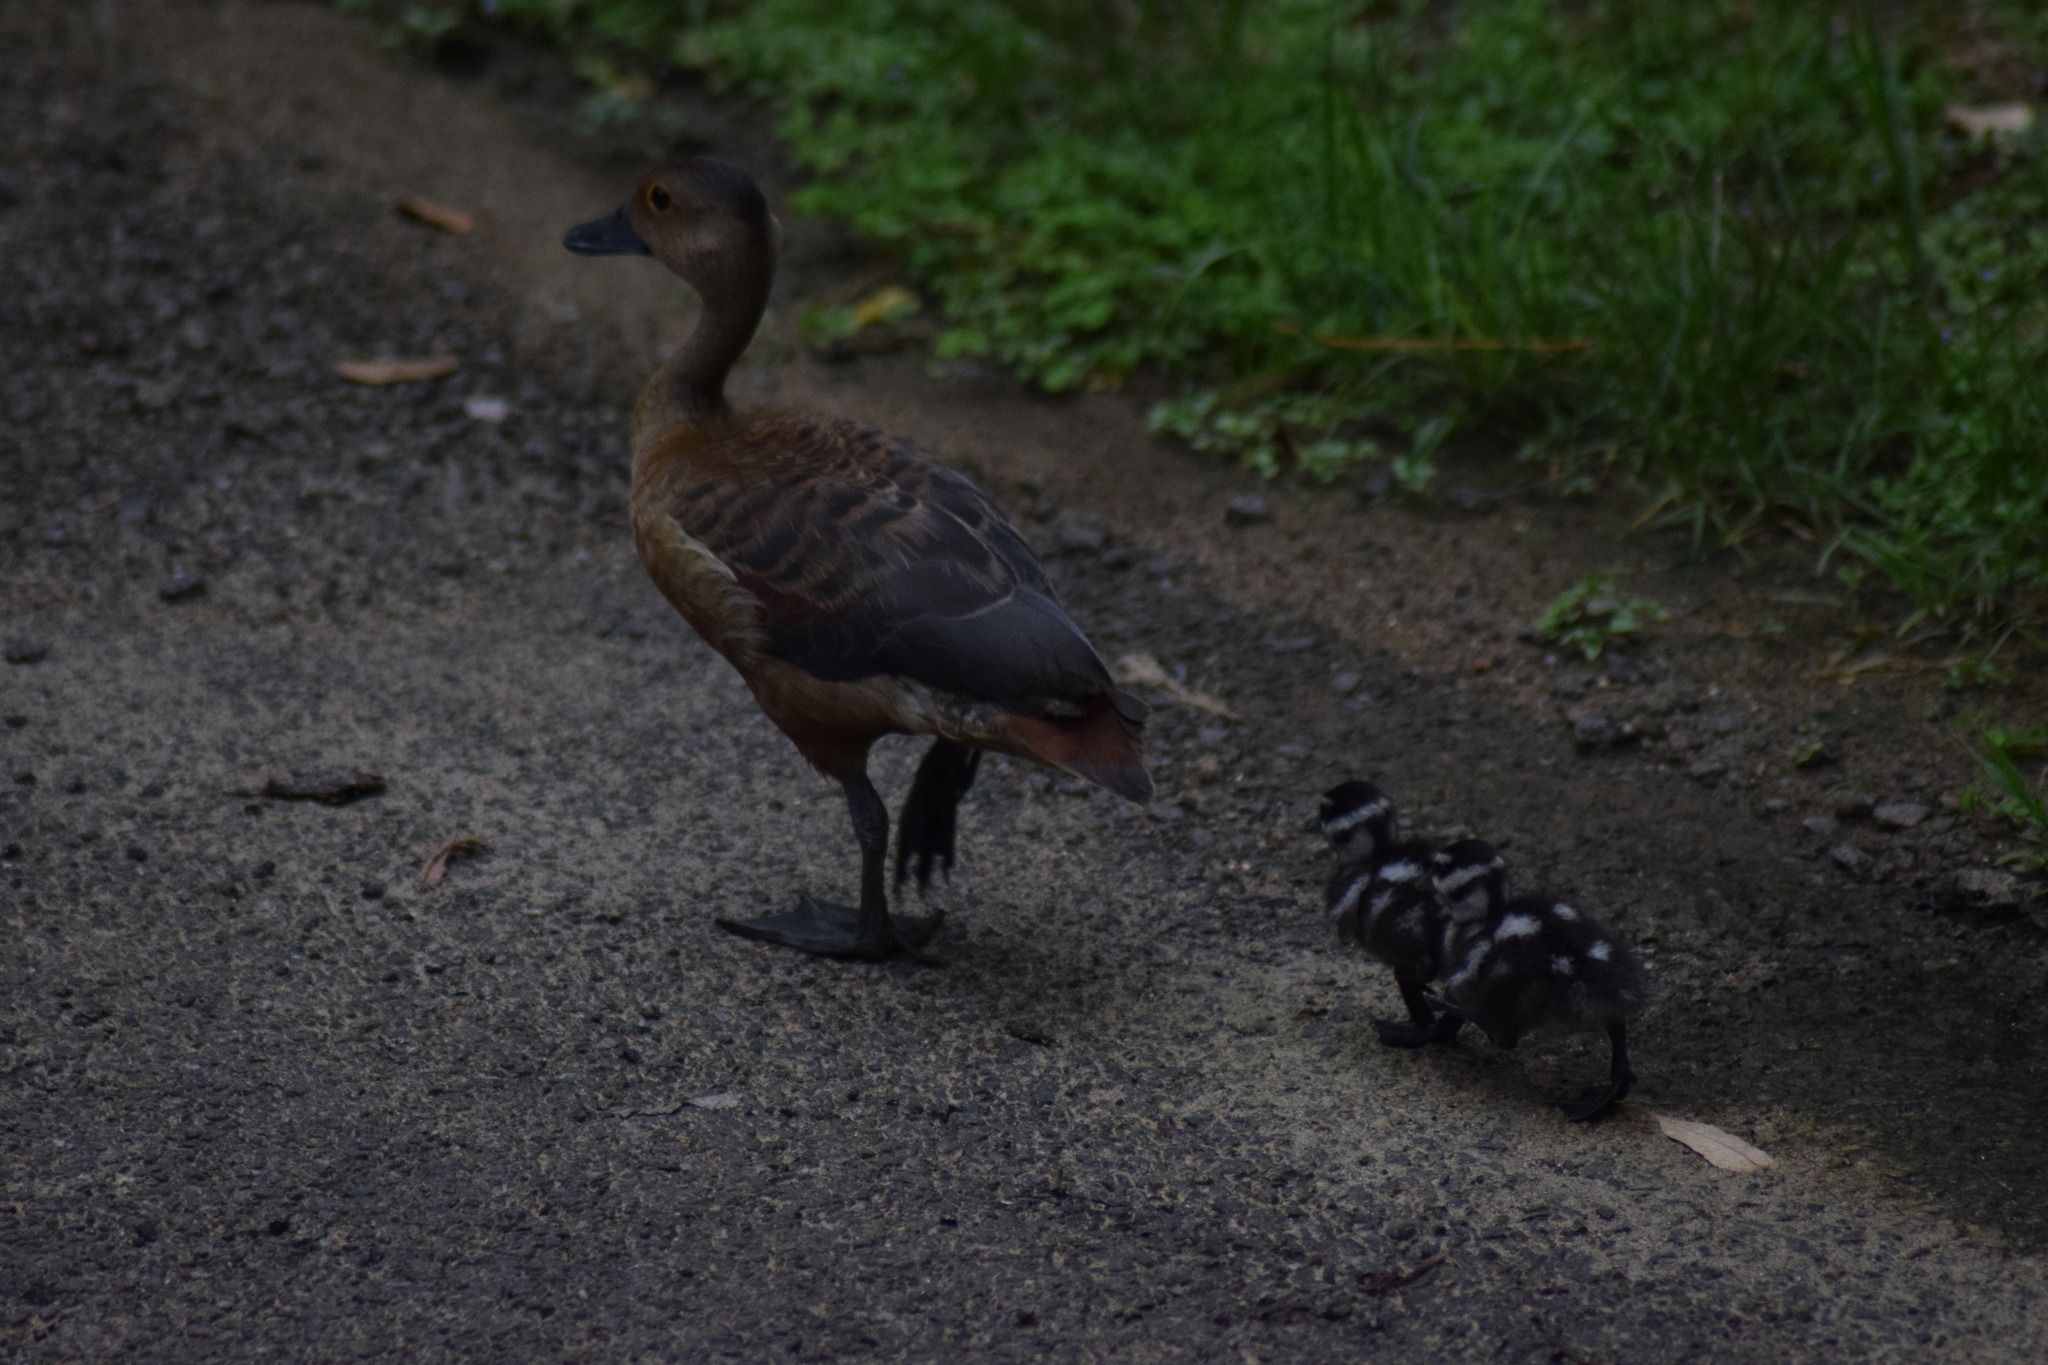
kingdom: Animalia
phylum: Chordata
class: Aves
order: Anseriformes
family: Anatidae
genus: Dendrocygna
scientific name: Dendrocygna javanica
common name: Lesser whistling-duck
